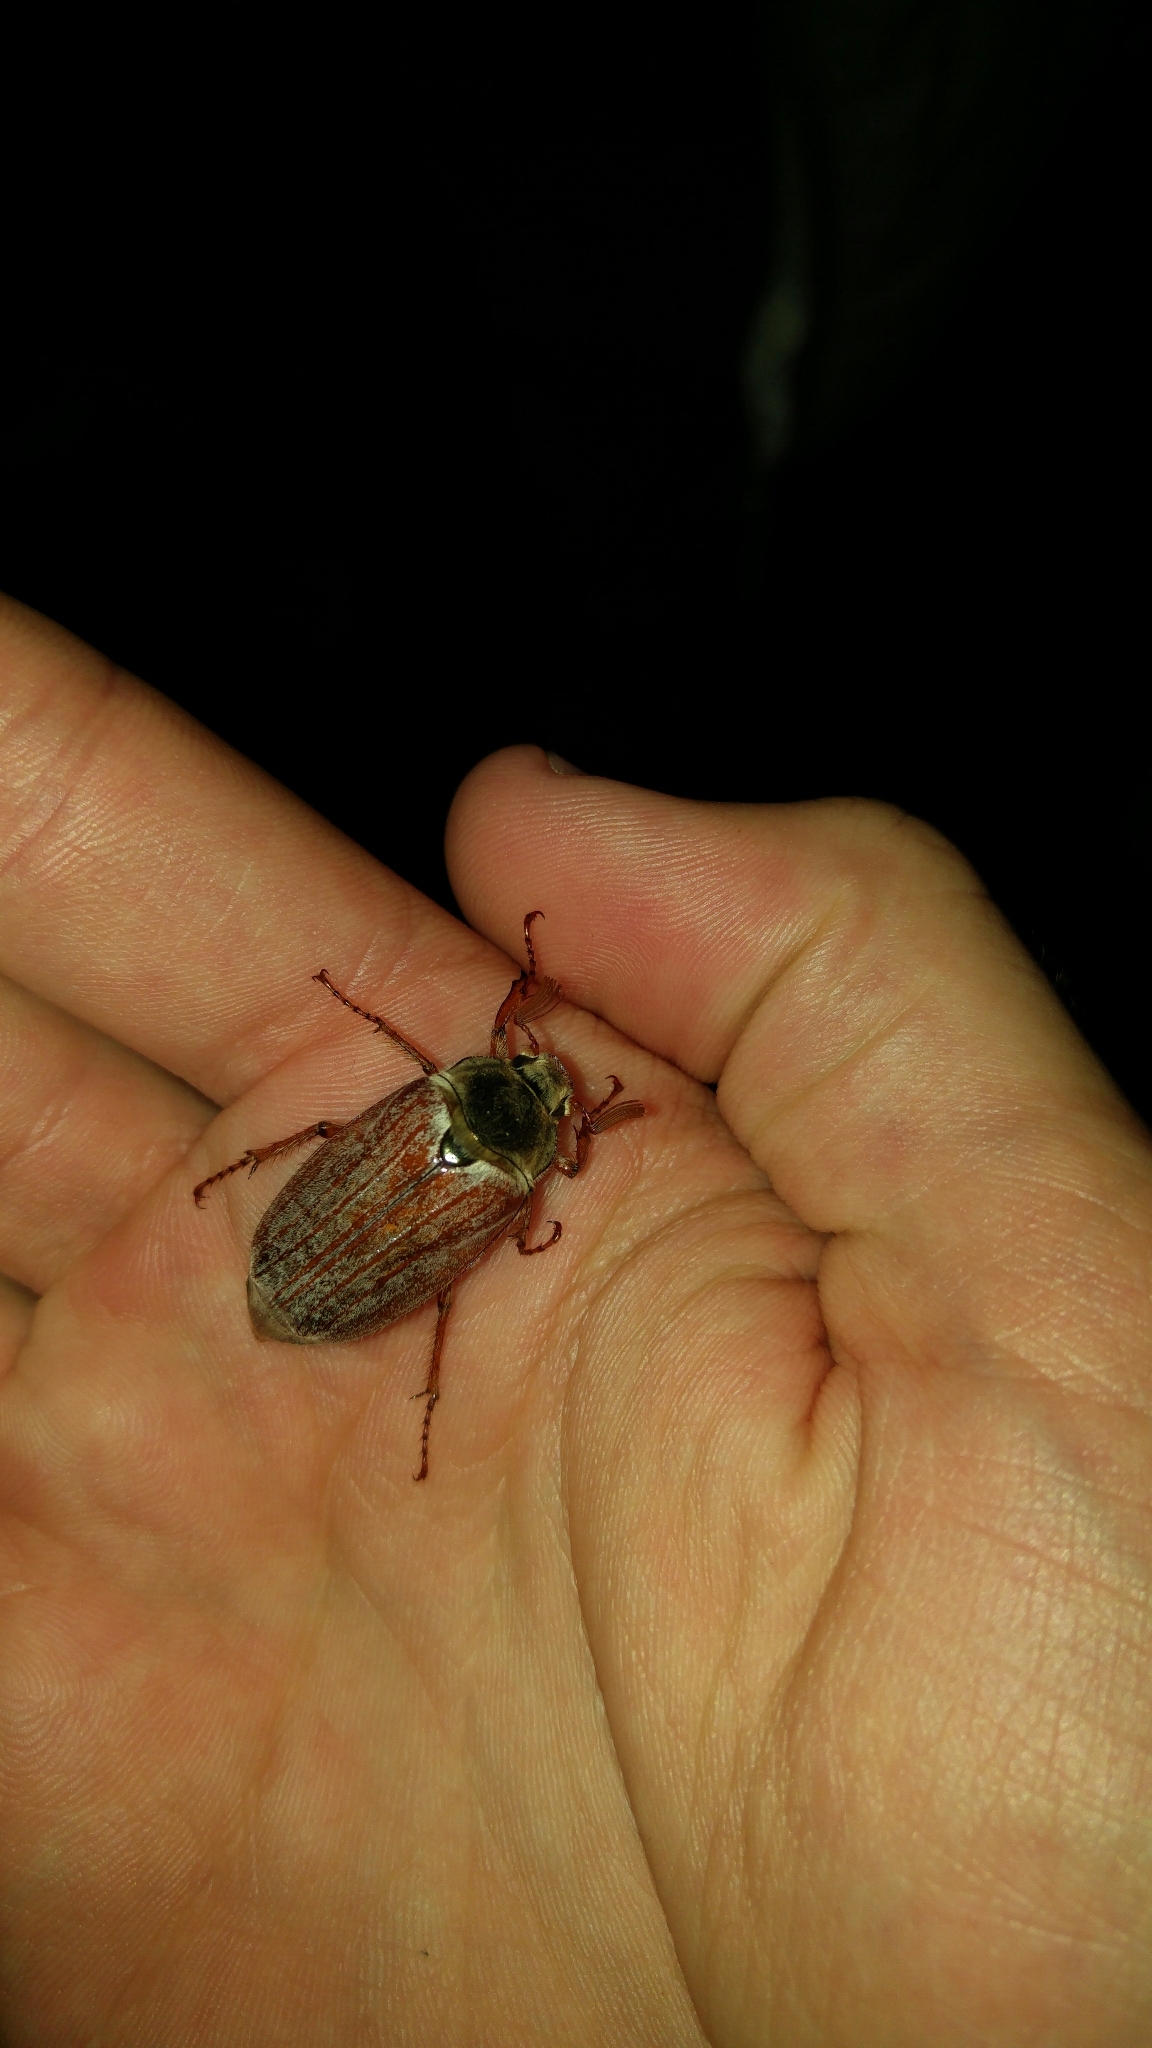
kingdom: Animalia
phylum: Arthropoda
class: Insecta
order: Coleoptera
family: Scarabaeidae
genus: Melolontha
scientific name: Melolontha melolontha
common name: Cockchafer maybeetle
